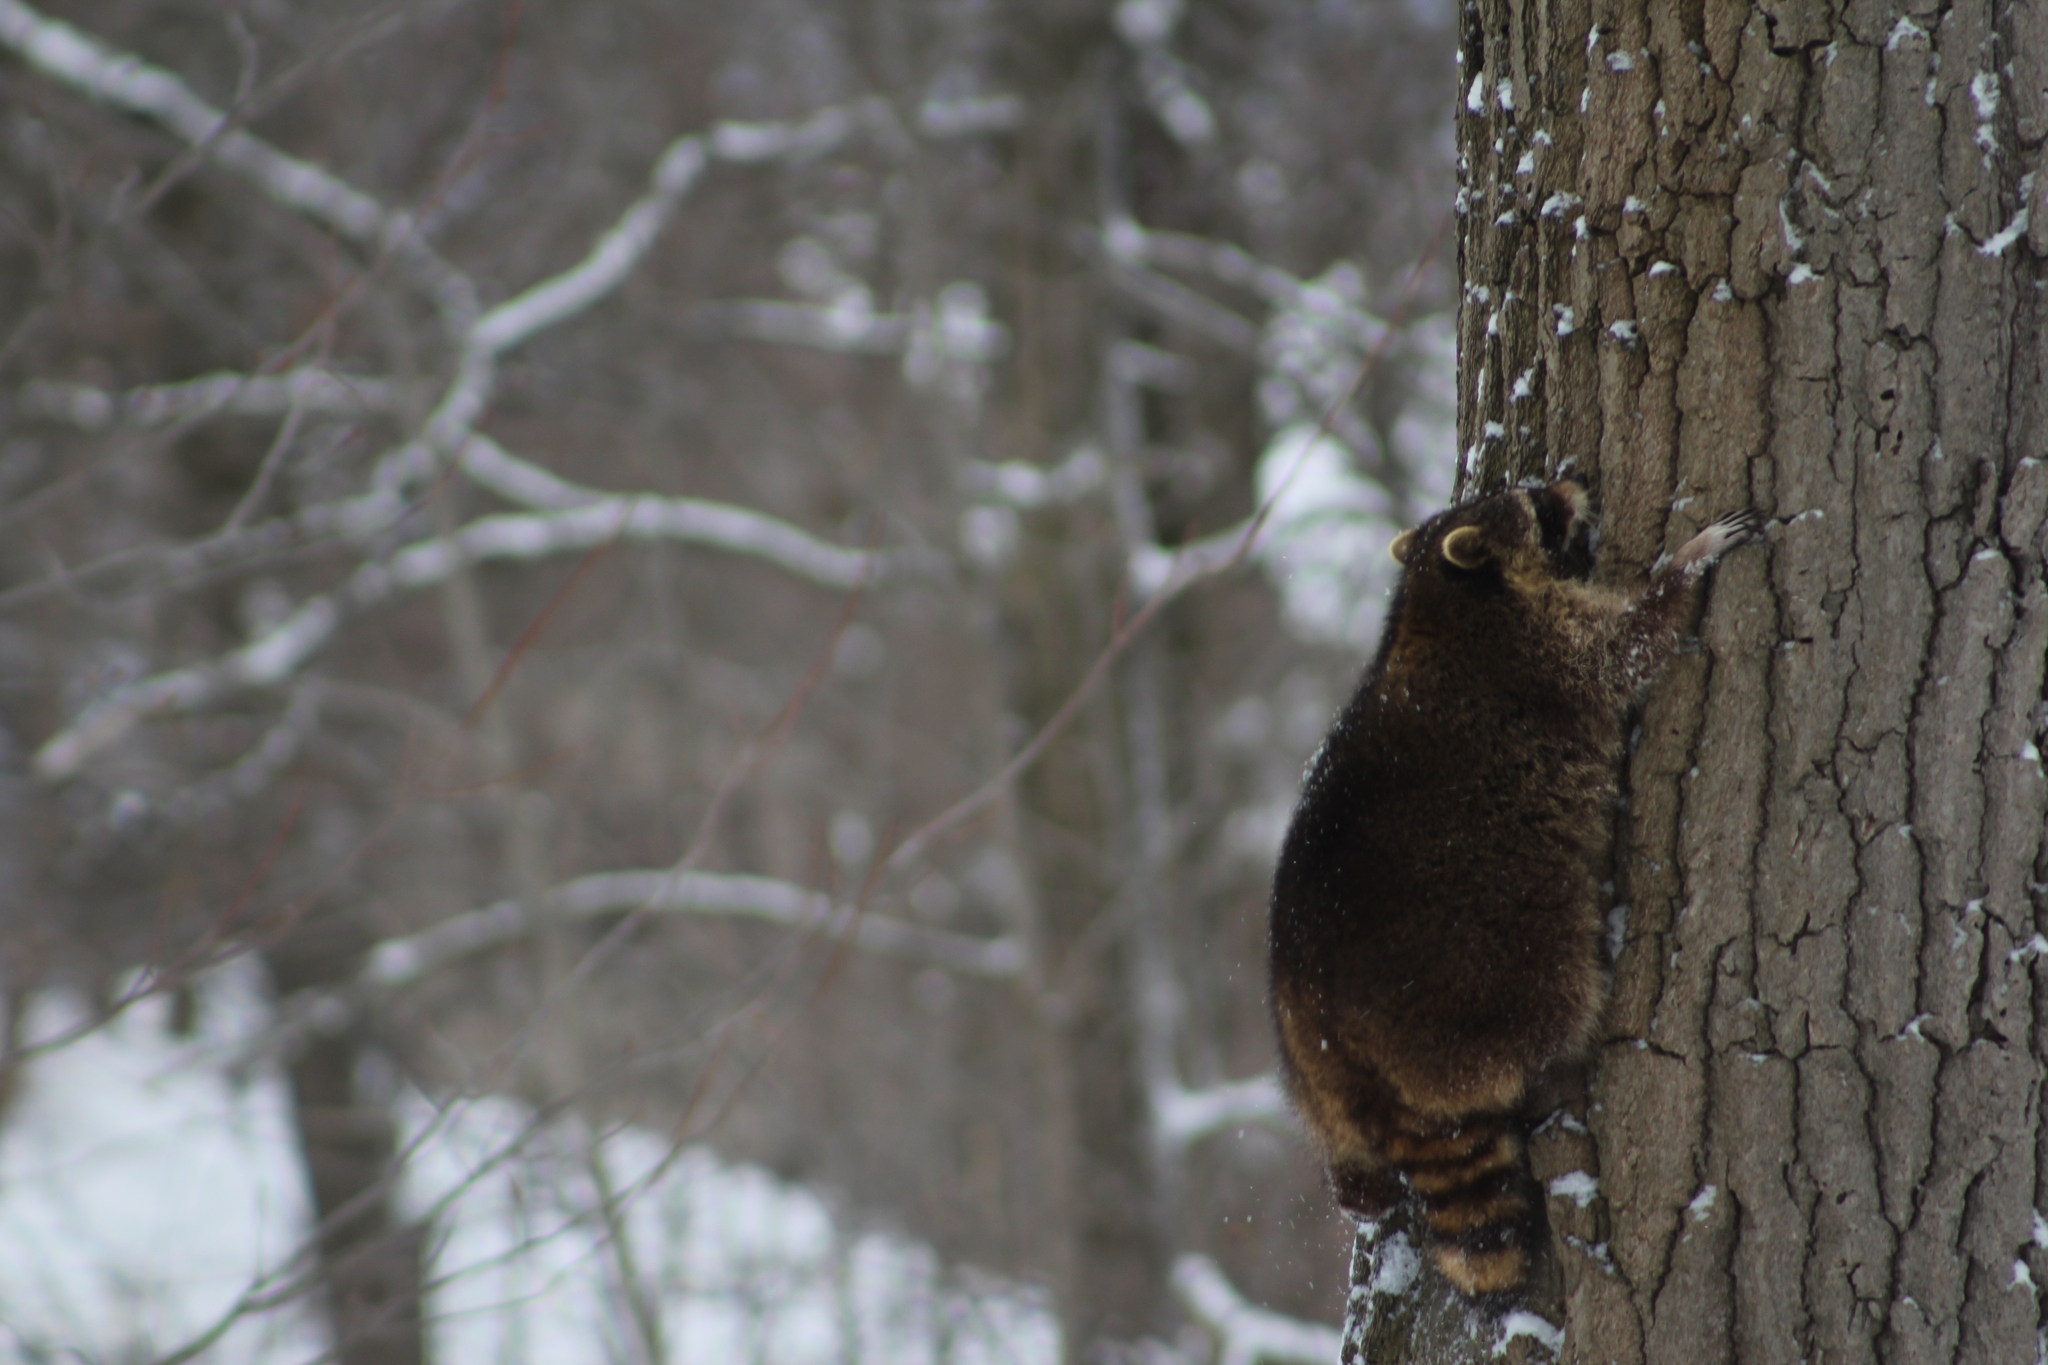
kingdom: Animalia
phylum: Chordata
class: Mammalia
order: Carnivora
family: Procyonidae
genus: Procyon
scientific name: Procyon lotor
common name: Raccoon
